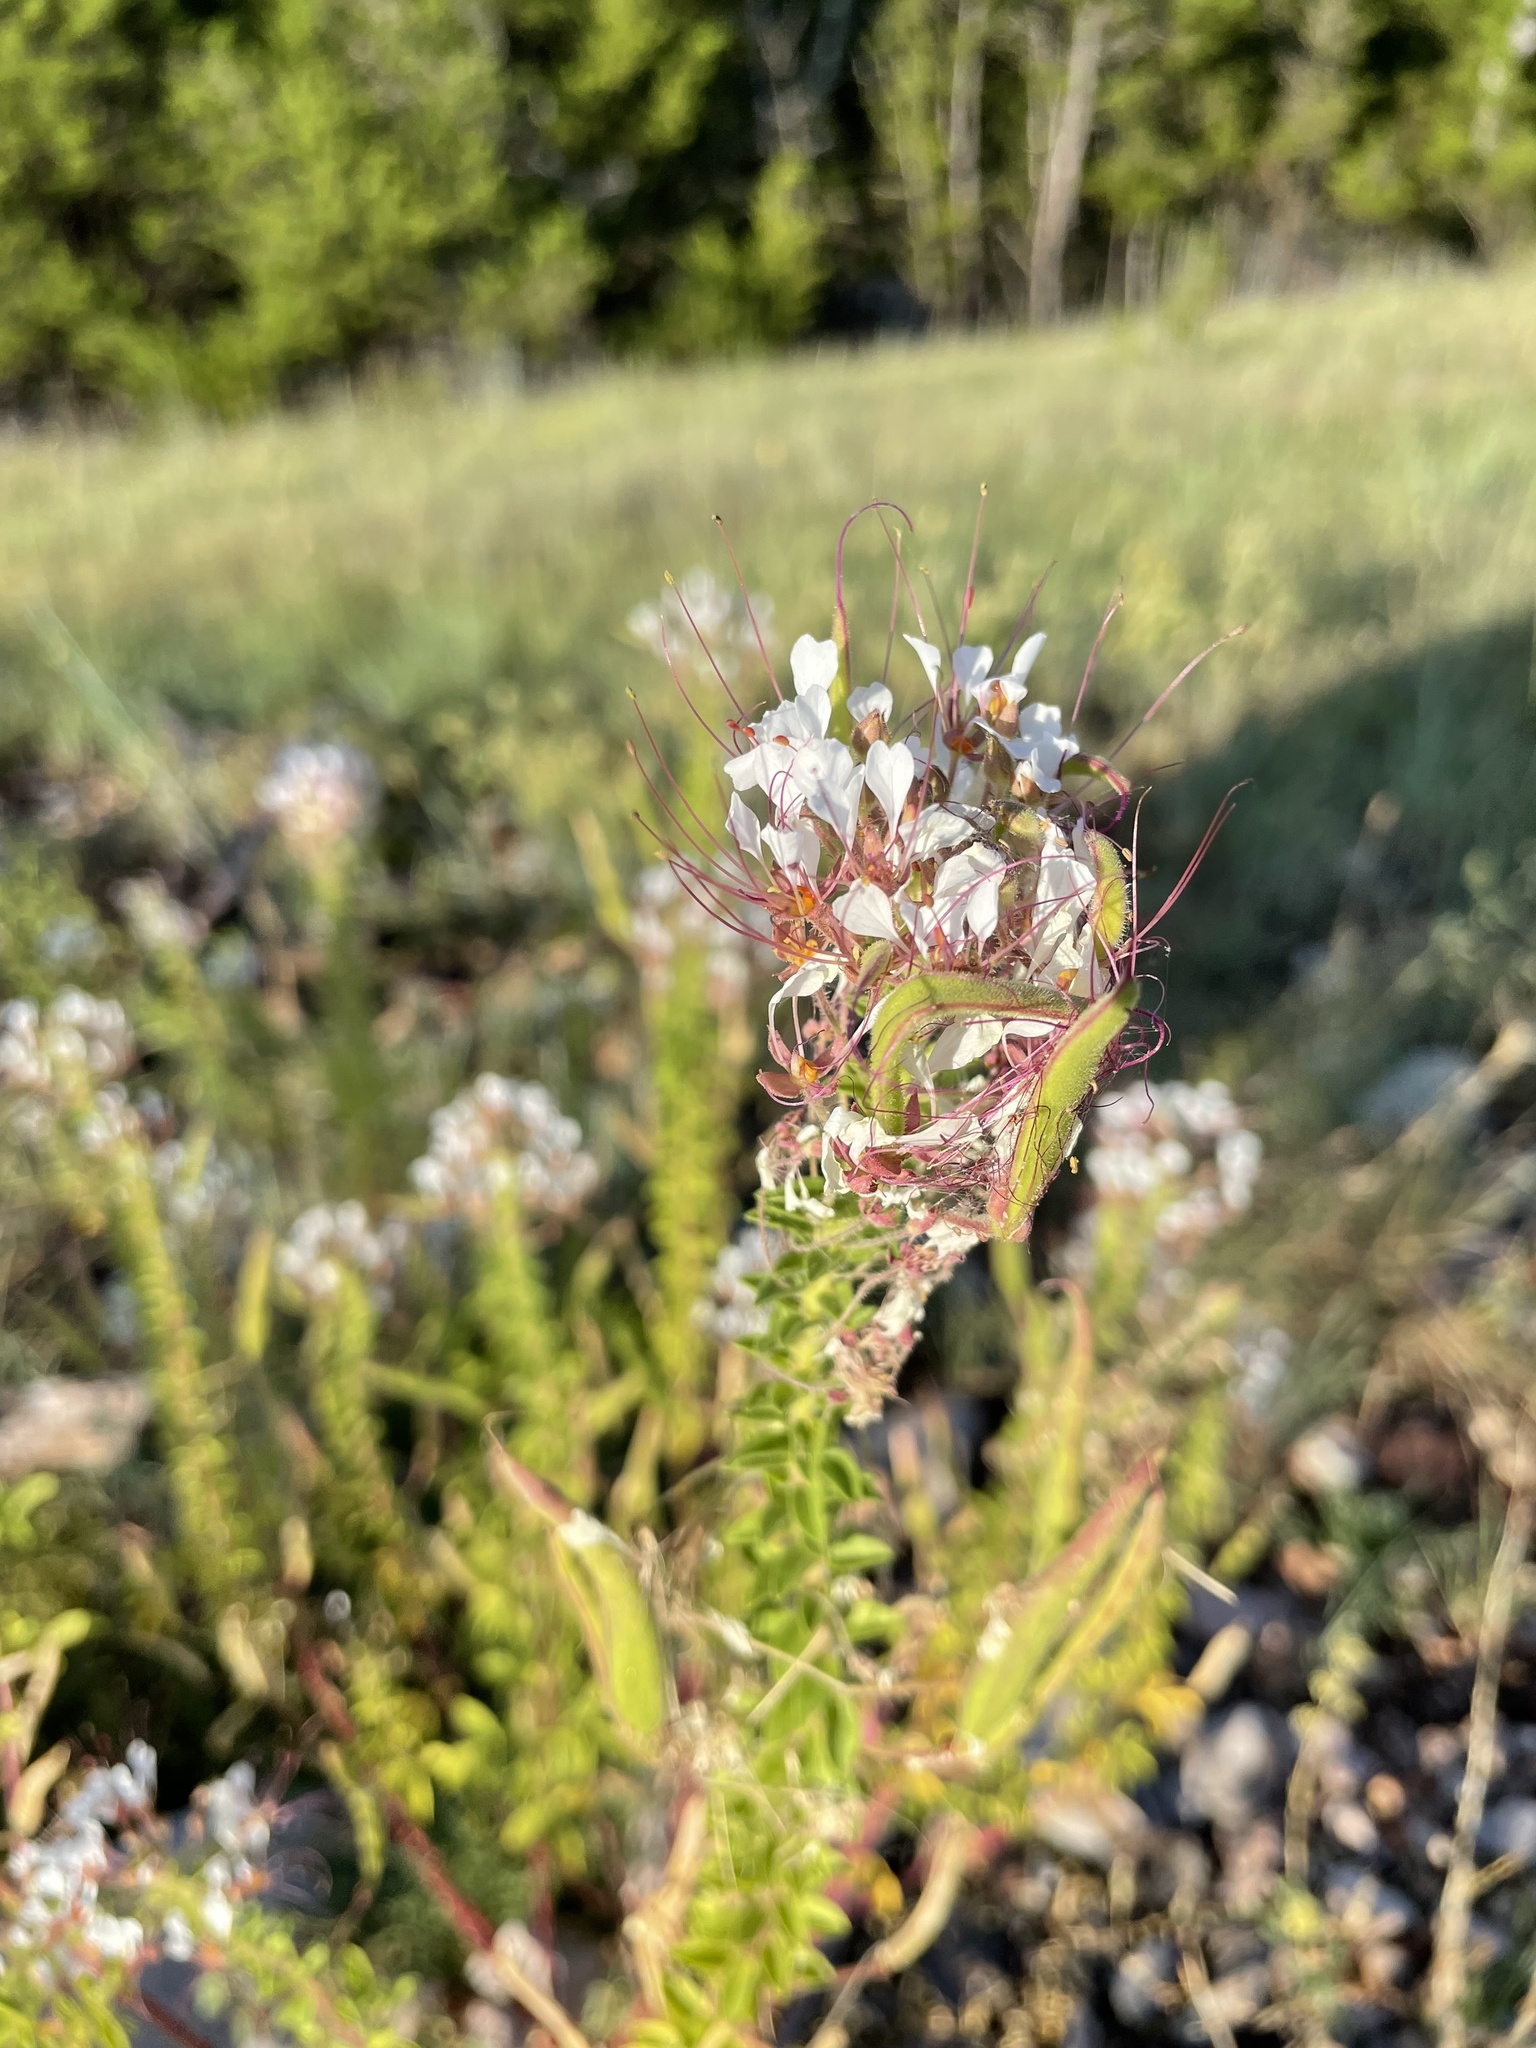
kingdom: Plantae
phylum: Tracheophyta
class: Magnoliopsida
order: Brassicales
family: Cleomaceae
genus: Polanisia
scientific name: Polanisia dodecandra
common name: Clammyweed
